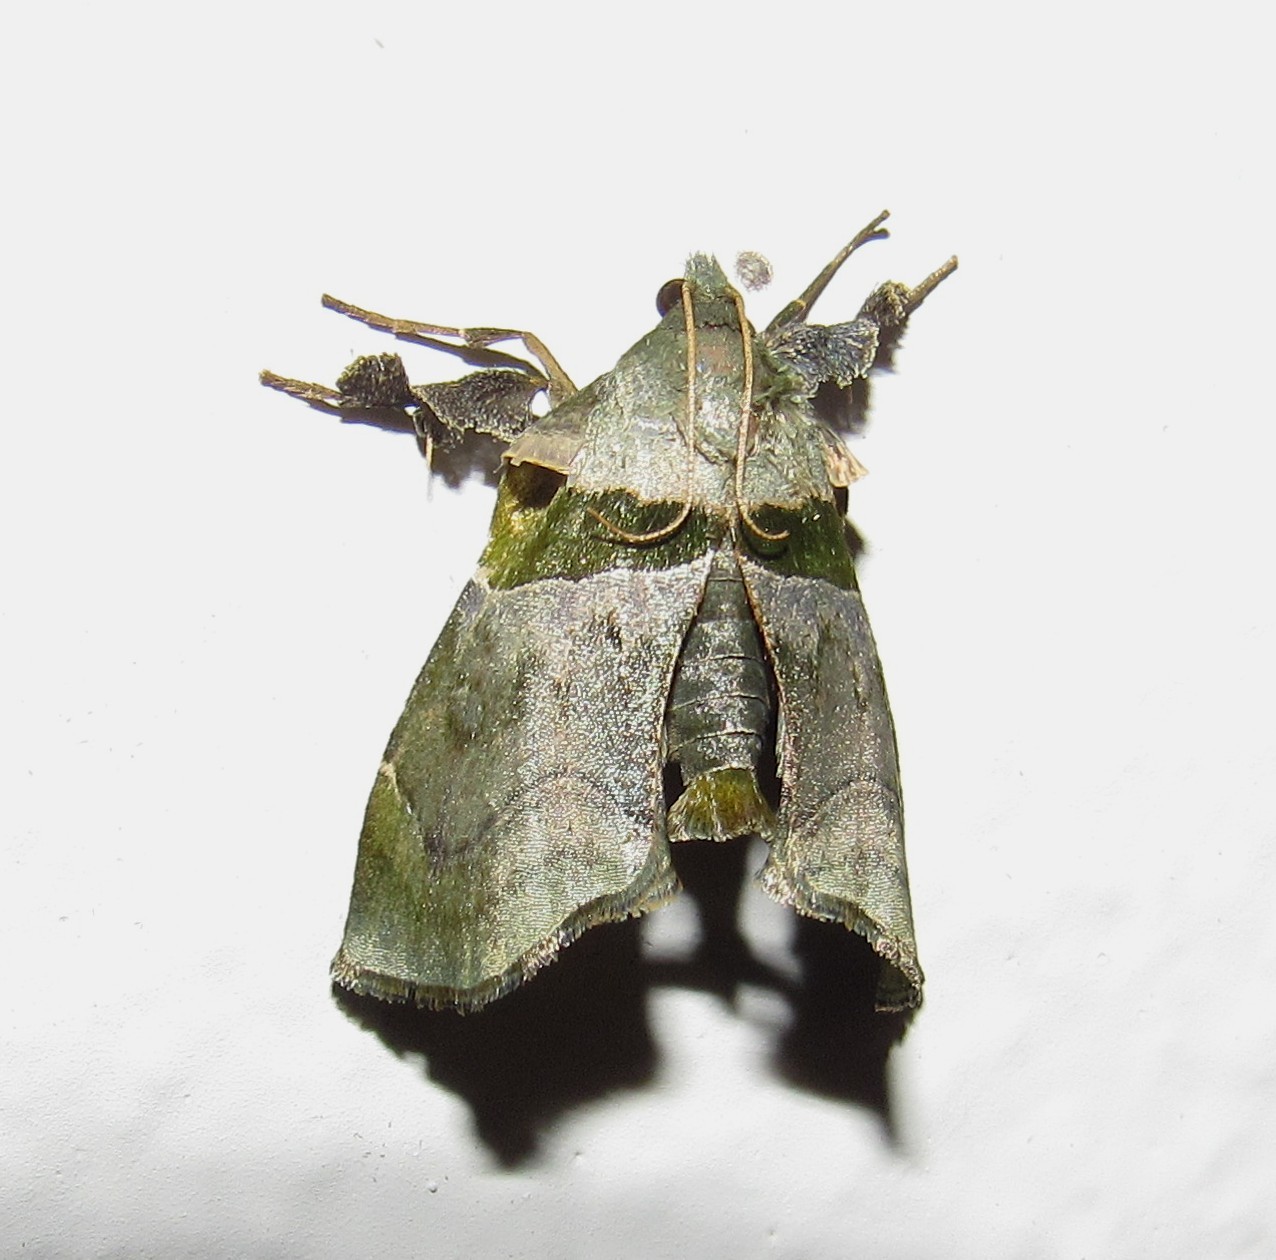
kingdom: Animalia
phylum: Arthropoda
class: Insecta
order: Lepidoptera
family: Pyralidae
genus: Azamora
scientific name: Azamora sororia
